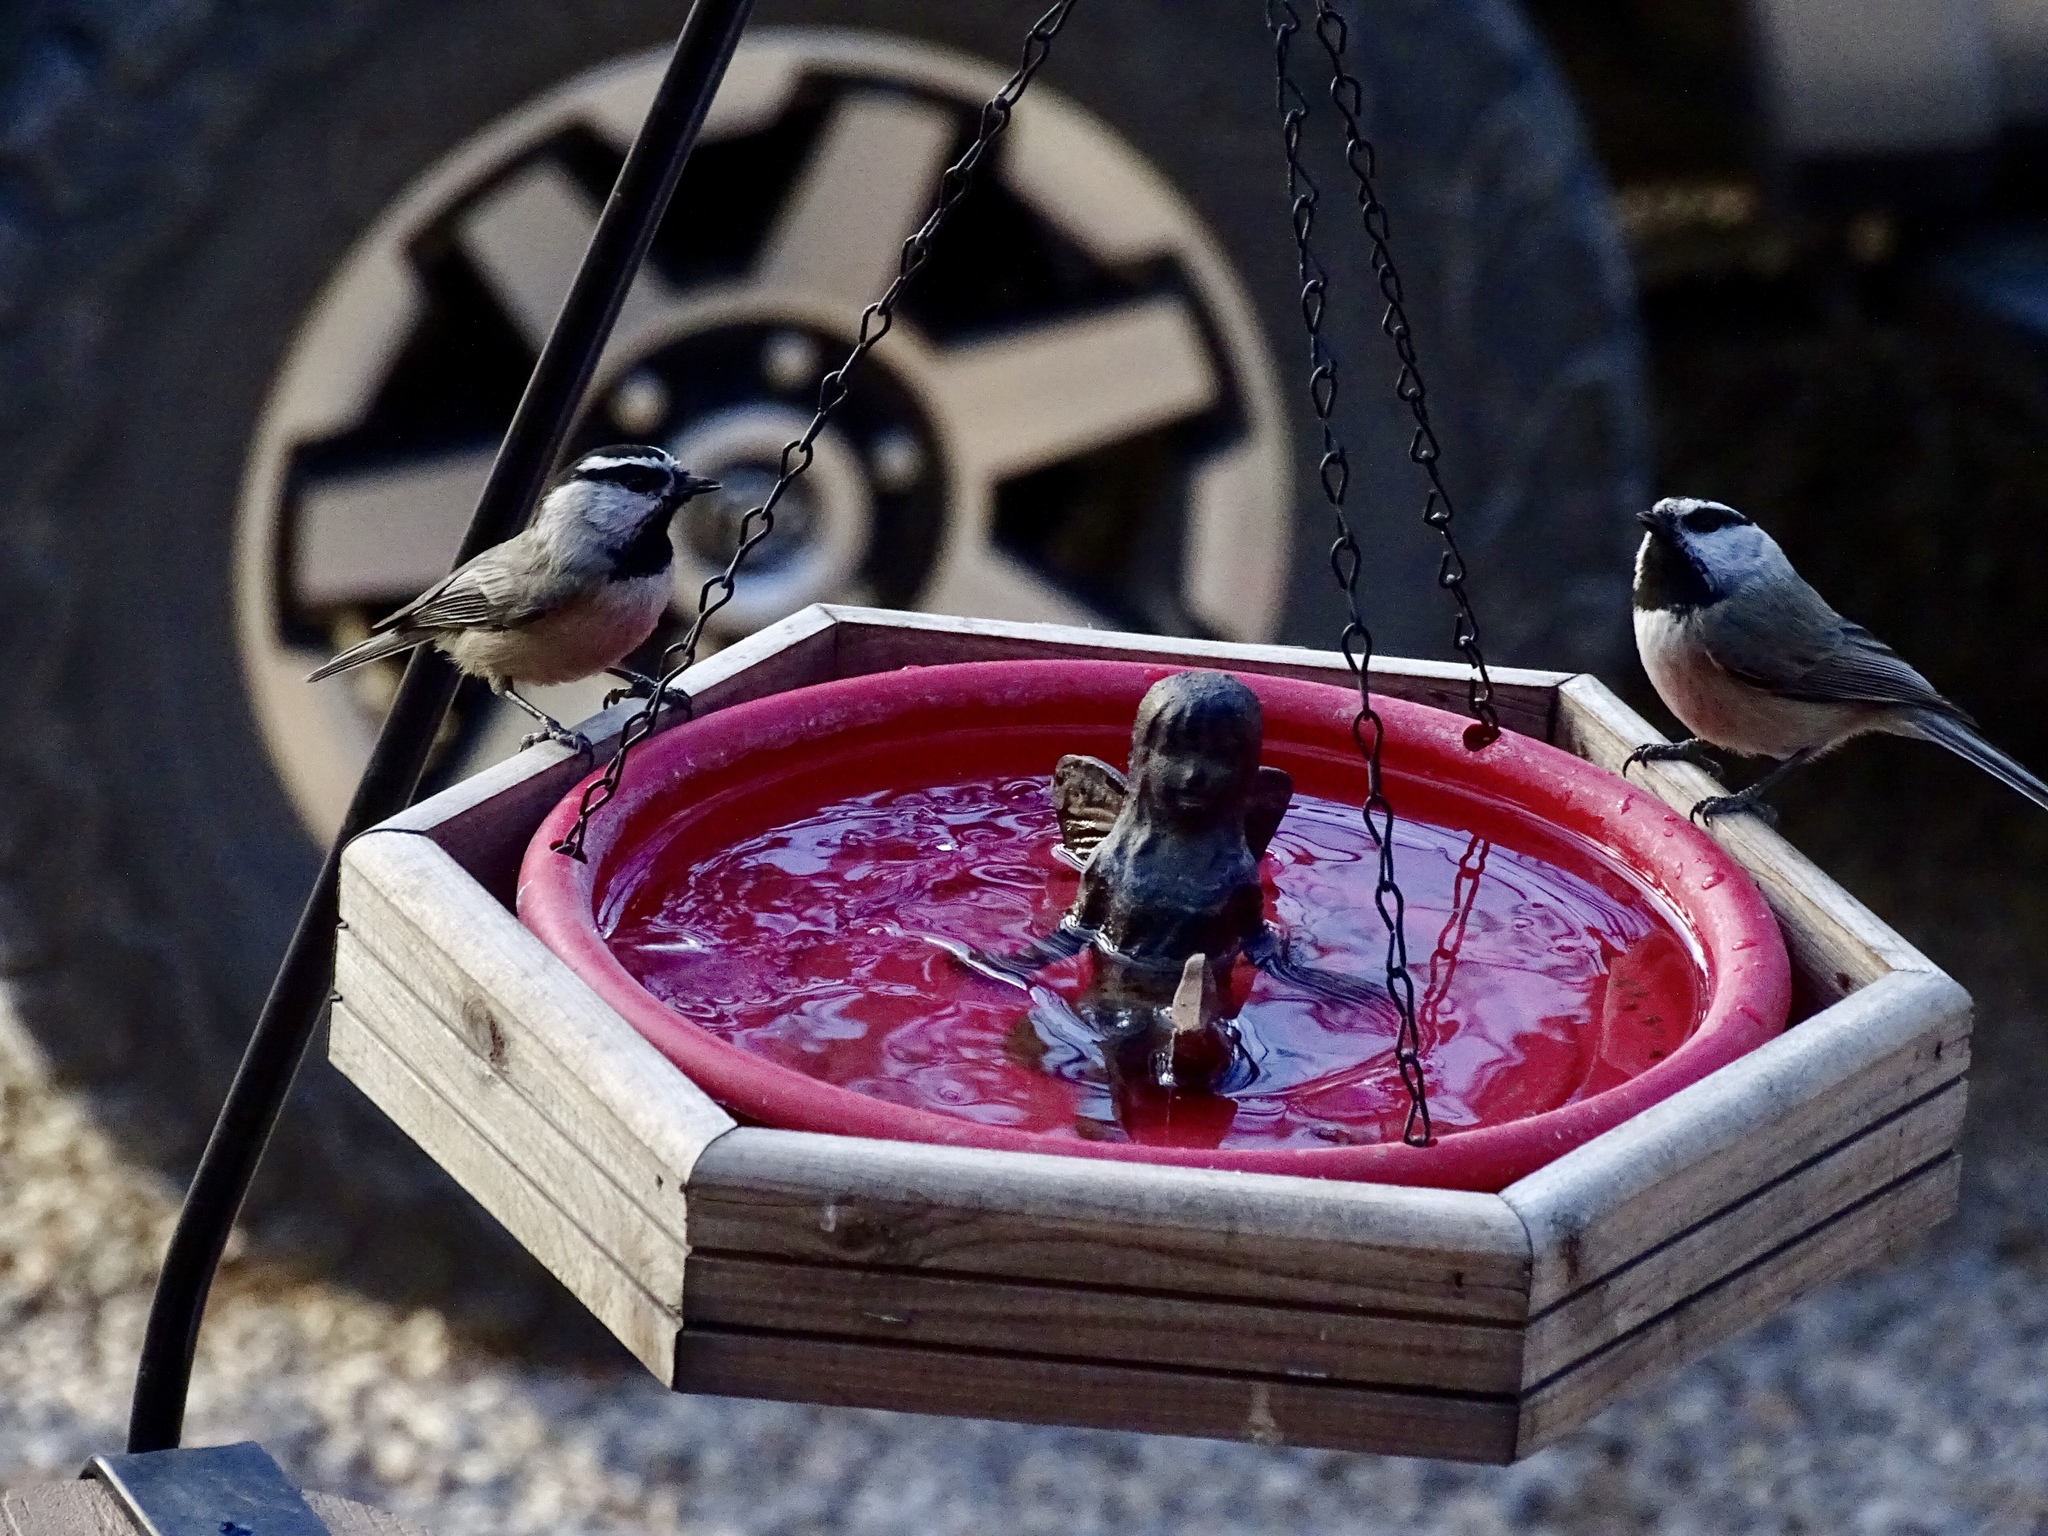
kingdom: Animalia
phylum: Chordata
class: Aves
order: Passeriformes
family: Paridae
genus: Poecile
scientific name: Poecile gambeli
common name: Mountain chickadee
